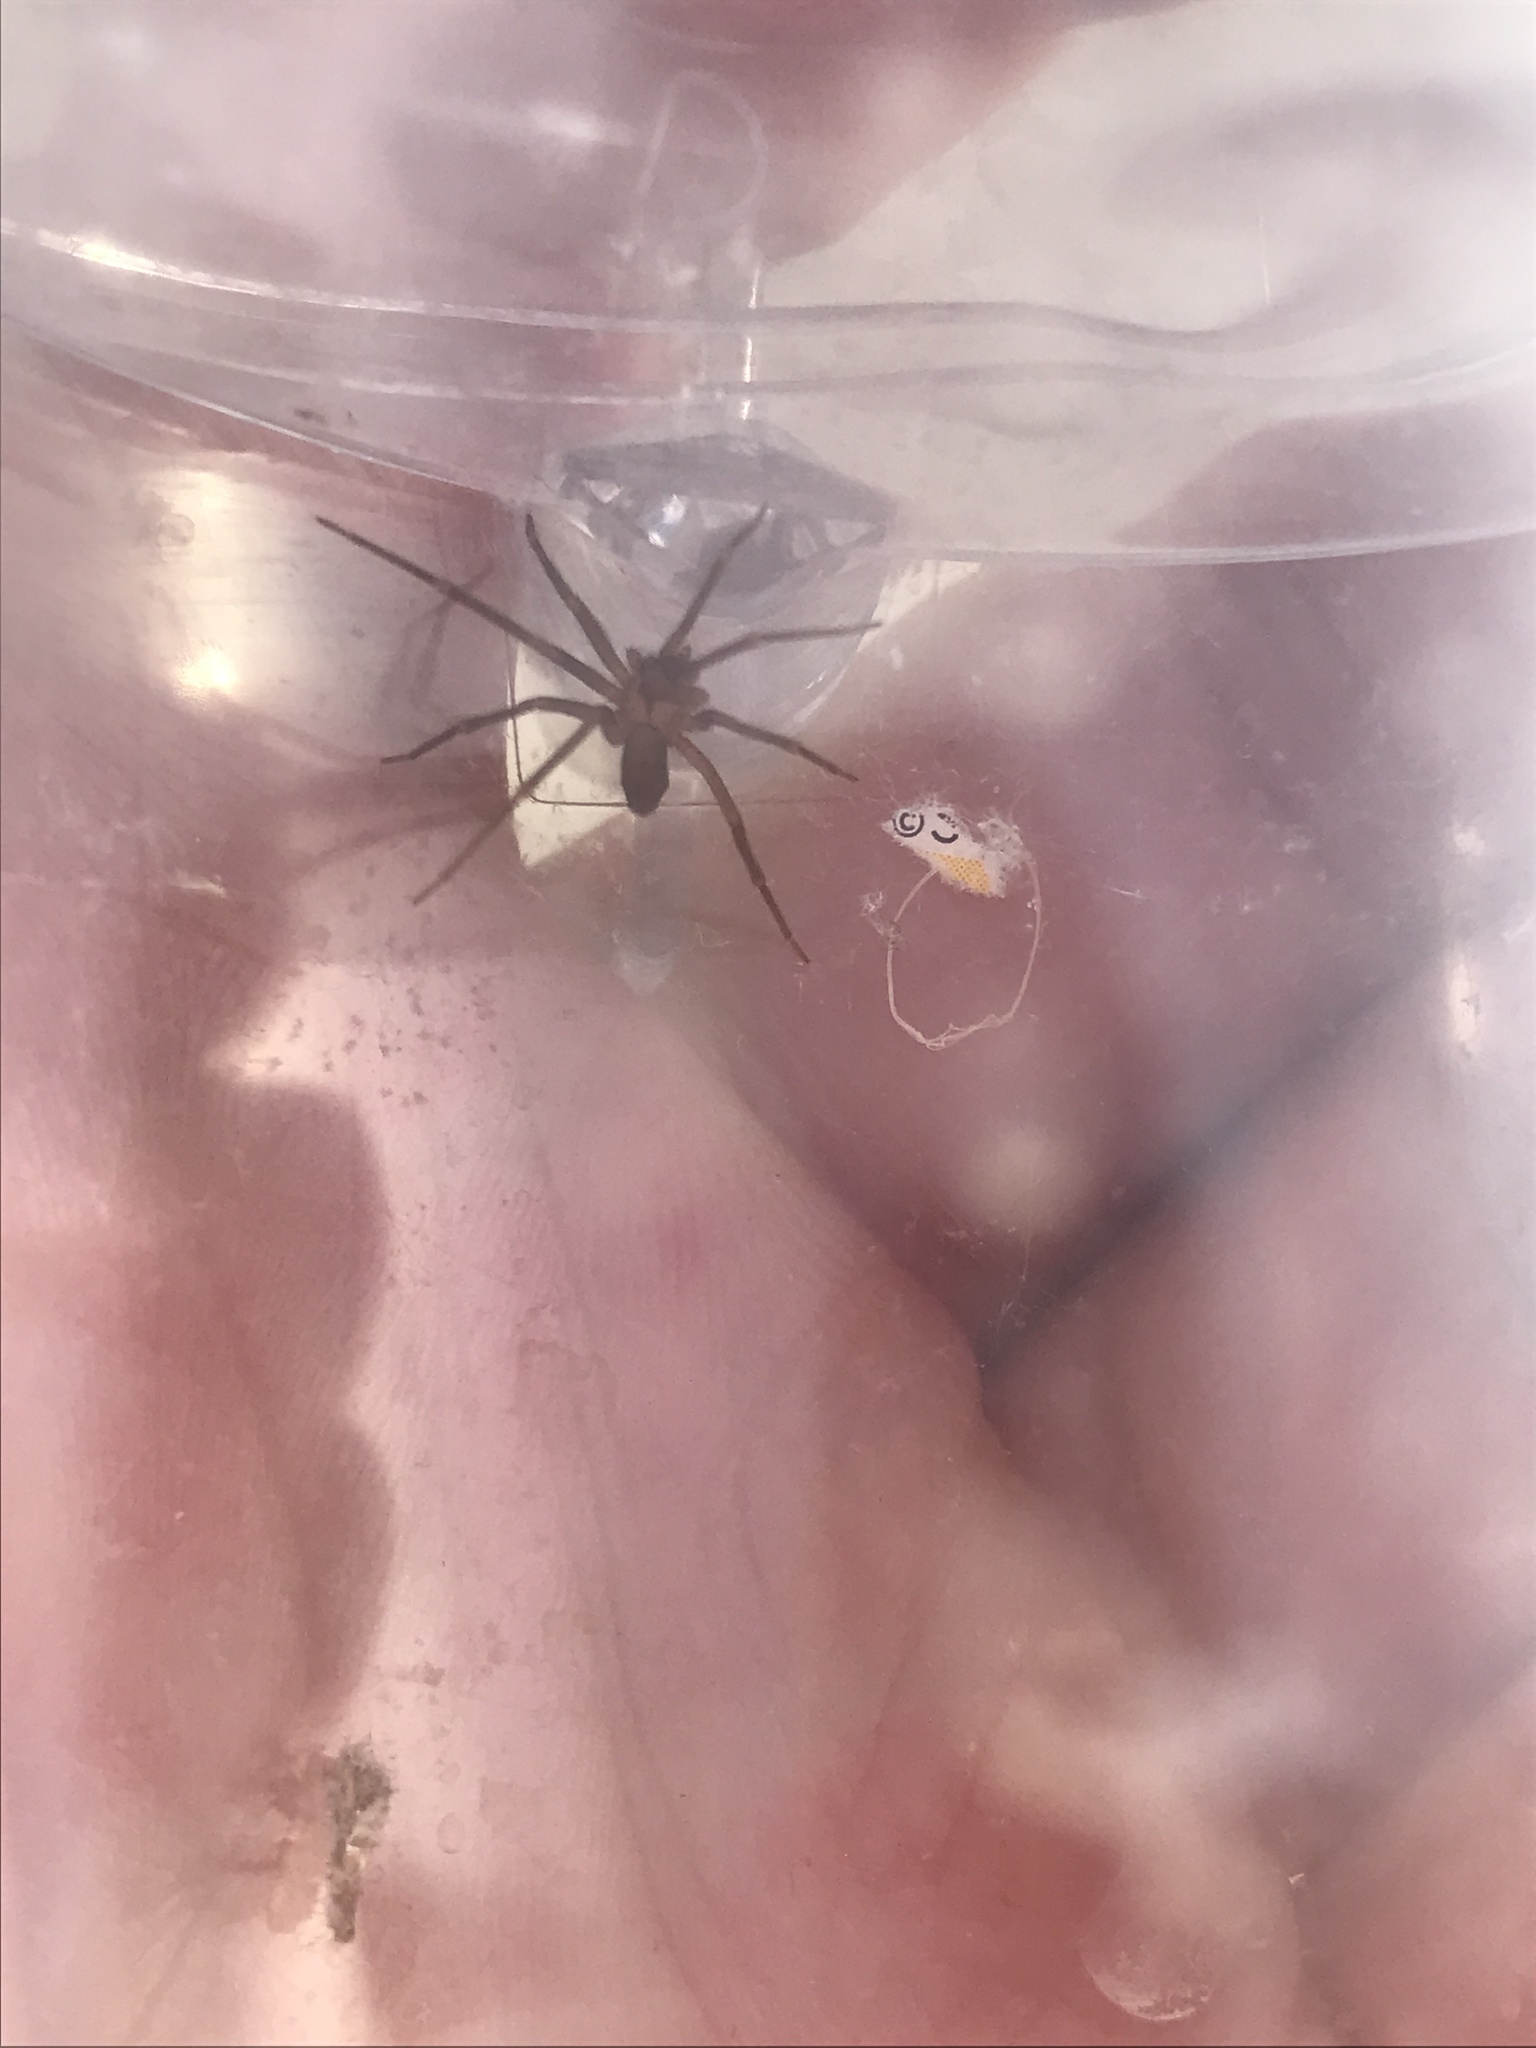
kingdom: Animalia
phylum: Arthropoda
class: Arachnida
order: Araneae
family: Sicariidae
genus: Loxosceles
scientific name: Loxosceles reclusa
